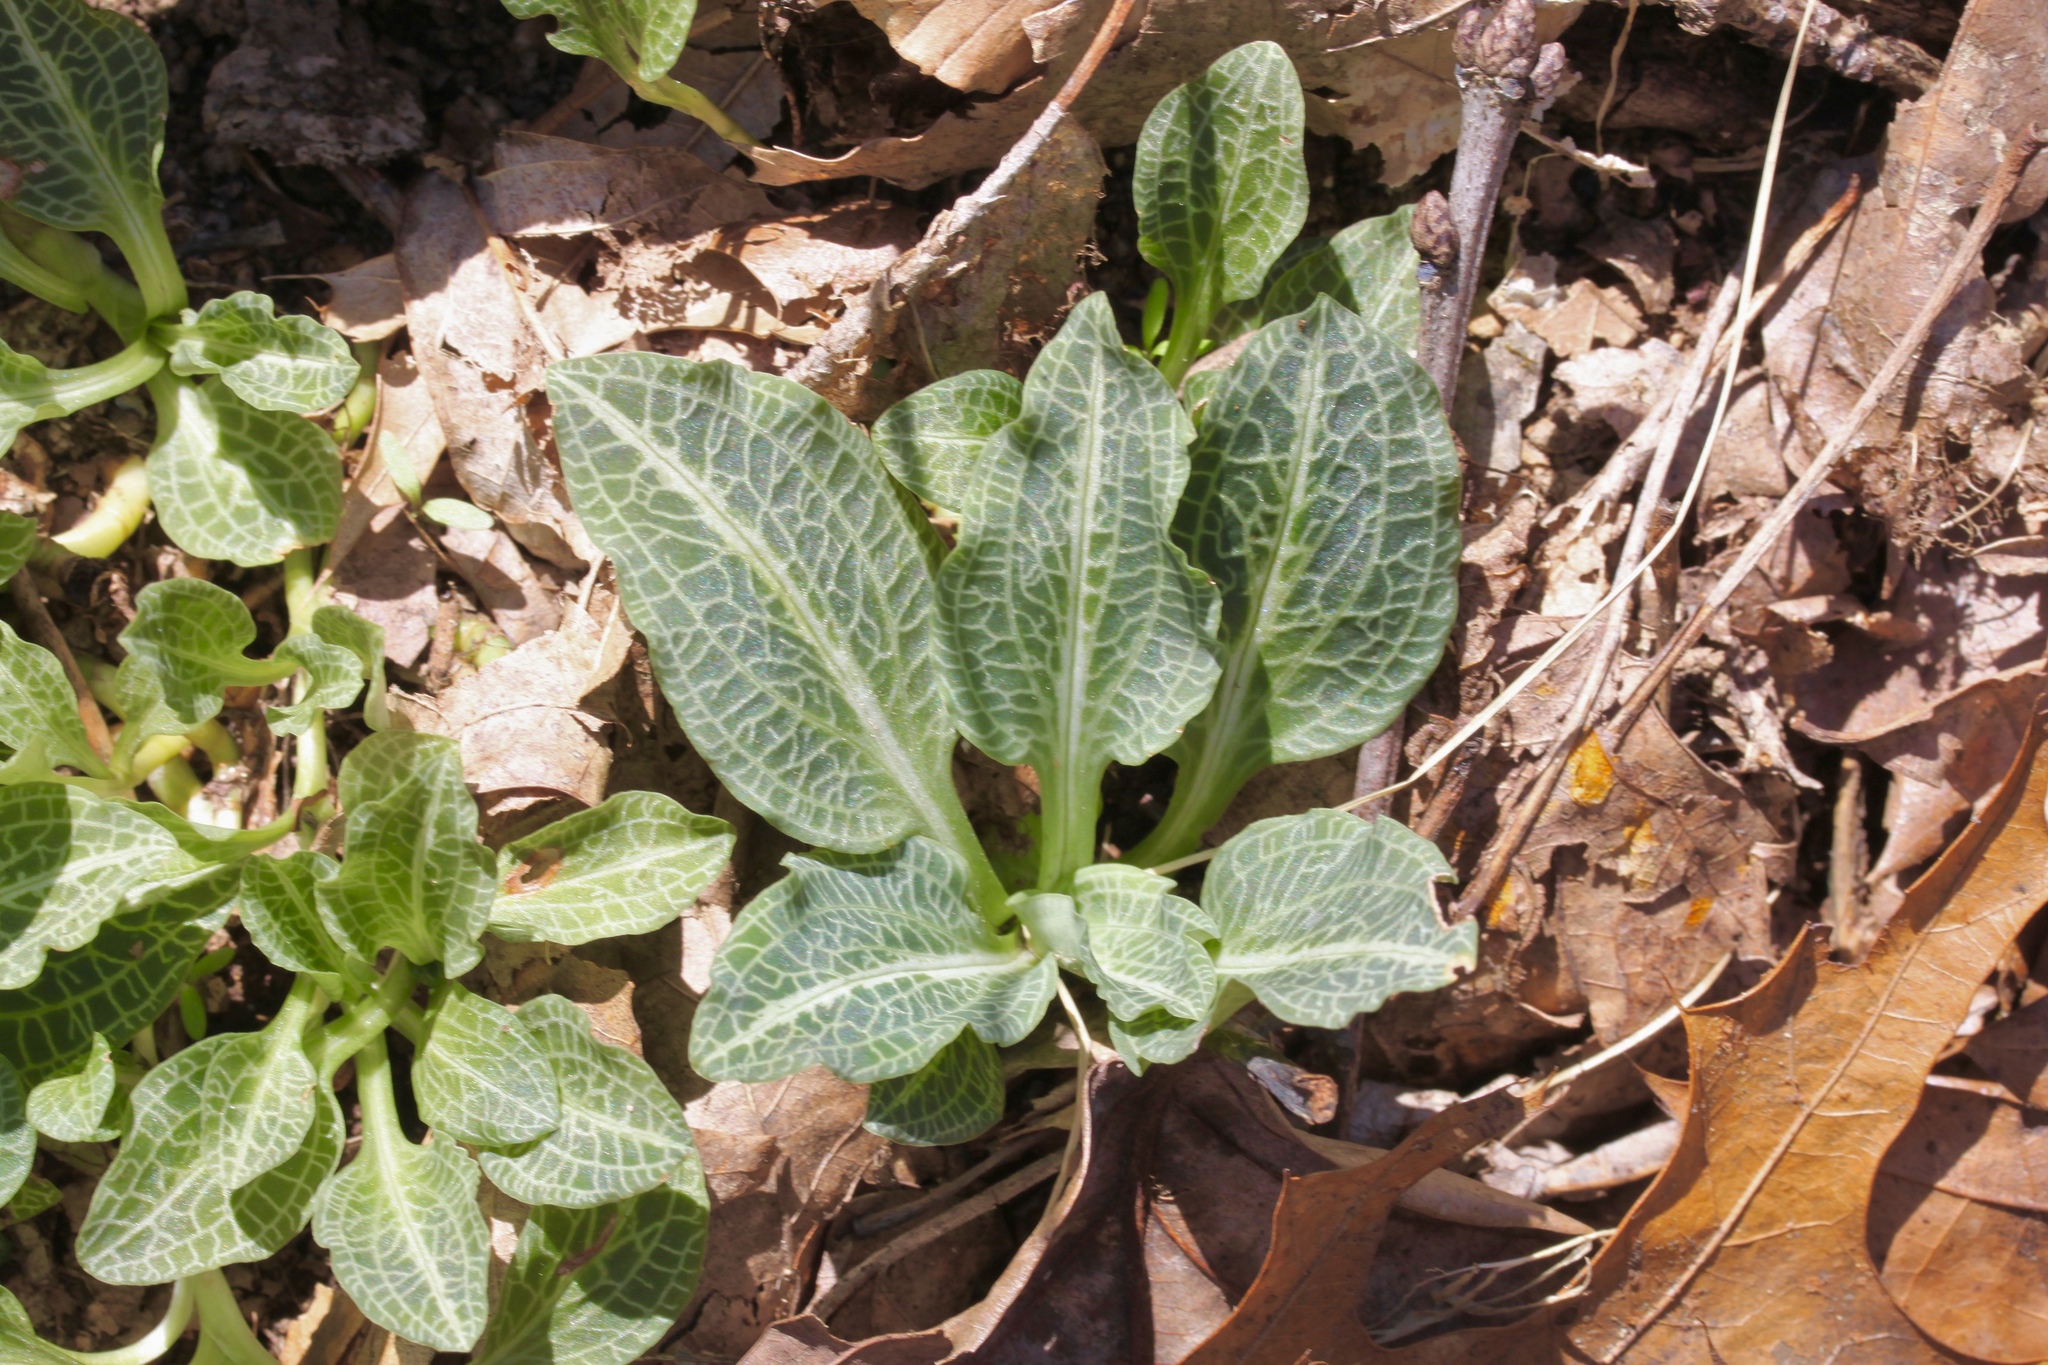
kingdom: Plantae
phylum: Tracheophyta
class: Liliopsida
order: Asparagales
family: Orchidaceae
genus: Goodyera
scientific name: Goodyera pubescens
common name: Downy rattlesnake-plantain
